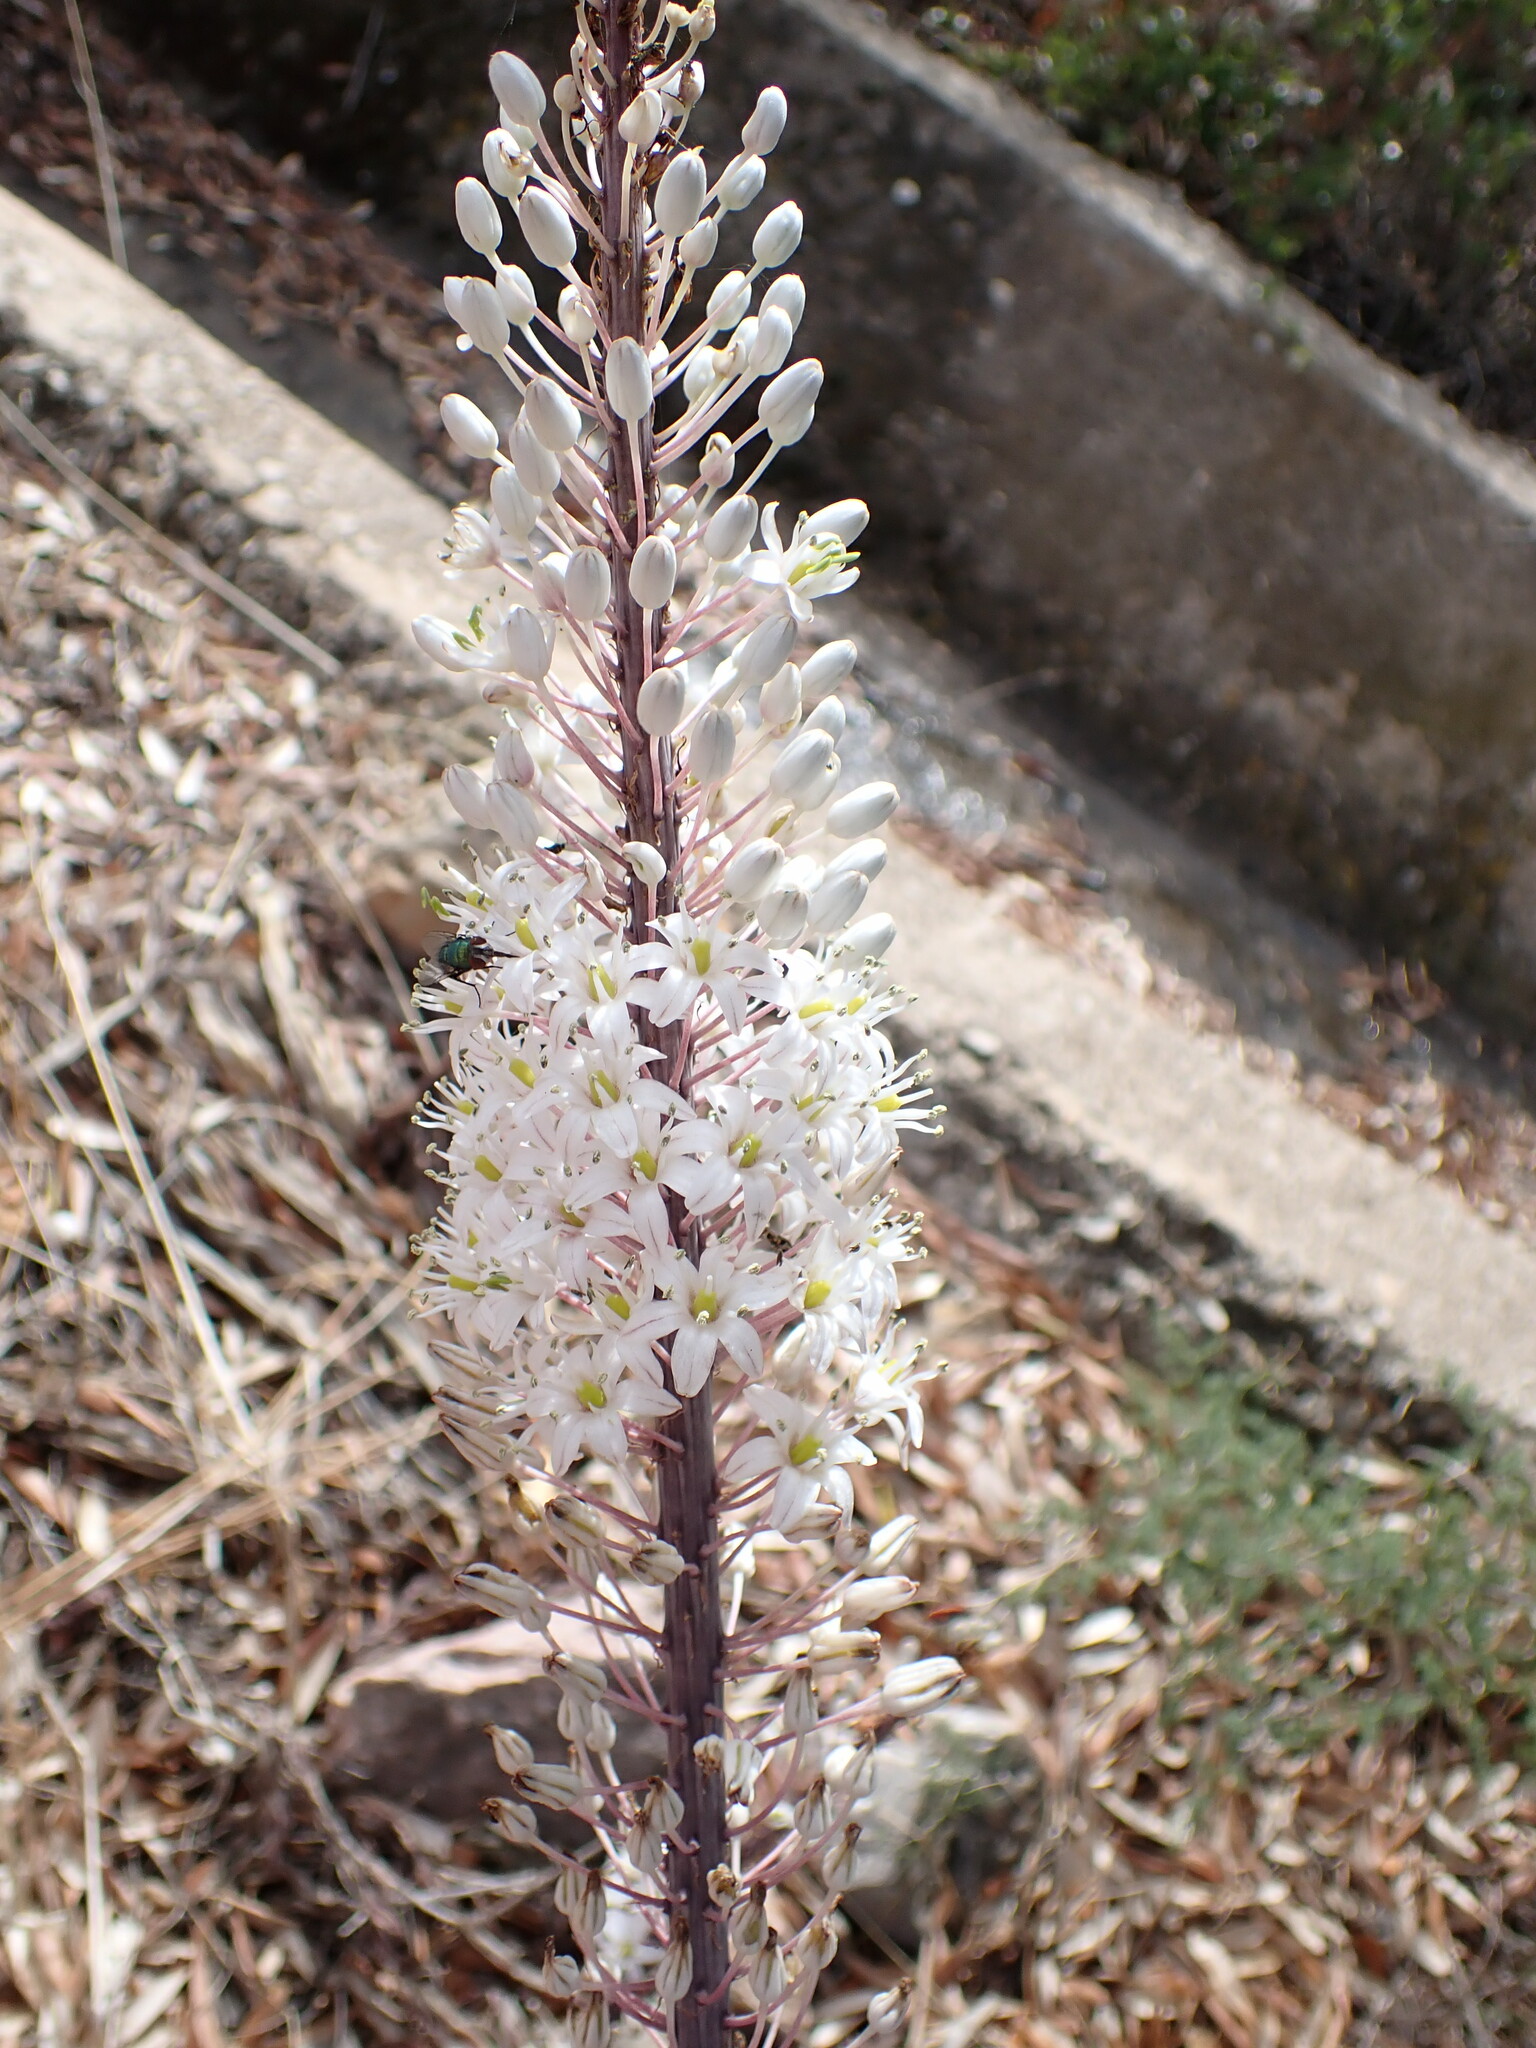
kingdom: Plantae
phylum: Tracheophyta
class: Liliopsida
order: Asparagales
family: Asparagaceae
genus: Drimia
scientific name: Drimia pancration
